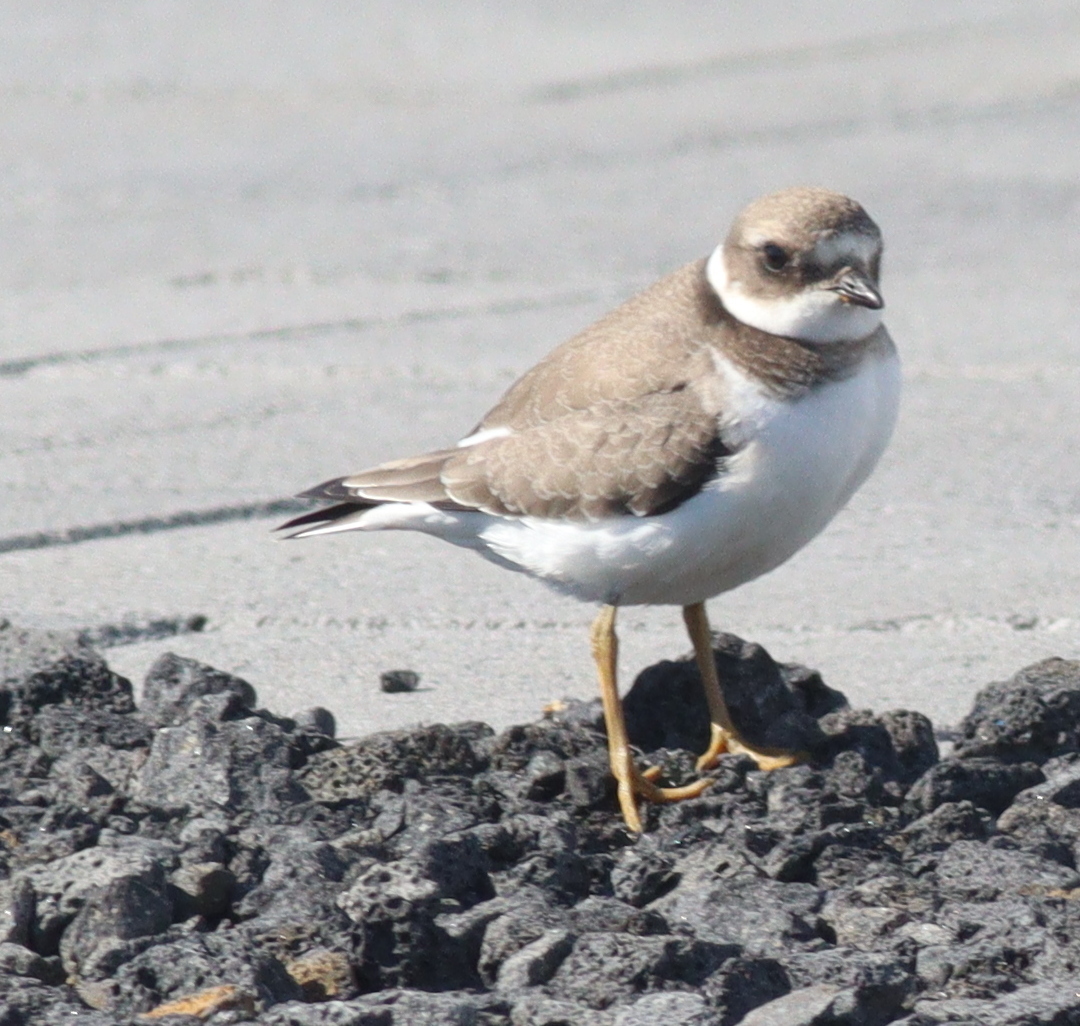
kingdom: Animalia
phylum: Chordata
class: Aves
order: Charadriiformes
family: Charadriidae
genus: Charadrius
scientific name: Charadrius hiaticula
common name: Common ringed plover
